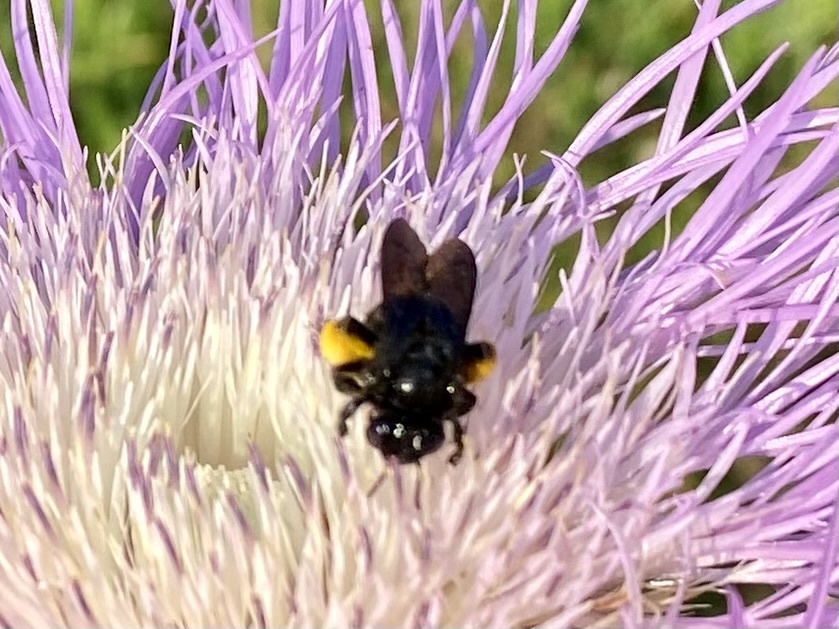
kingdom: Animalia
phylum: Arthropoda
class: Insecta
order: Hymenoptera
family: Apidae
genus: Melissodes
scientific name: Melissodes bimaculatus
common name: Two-spotted long-horned bee
